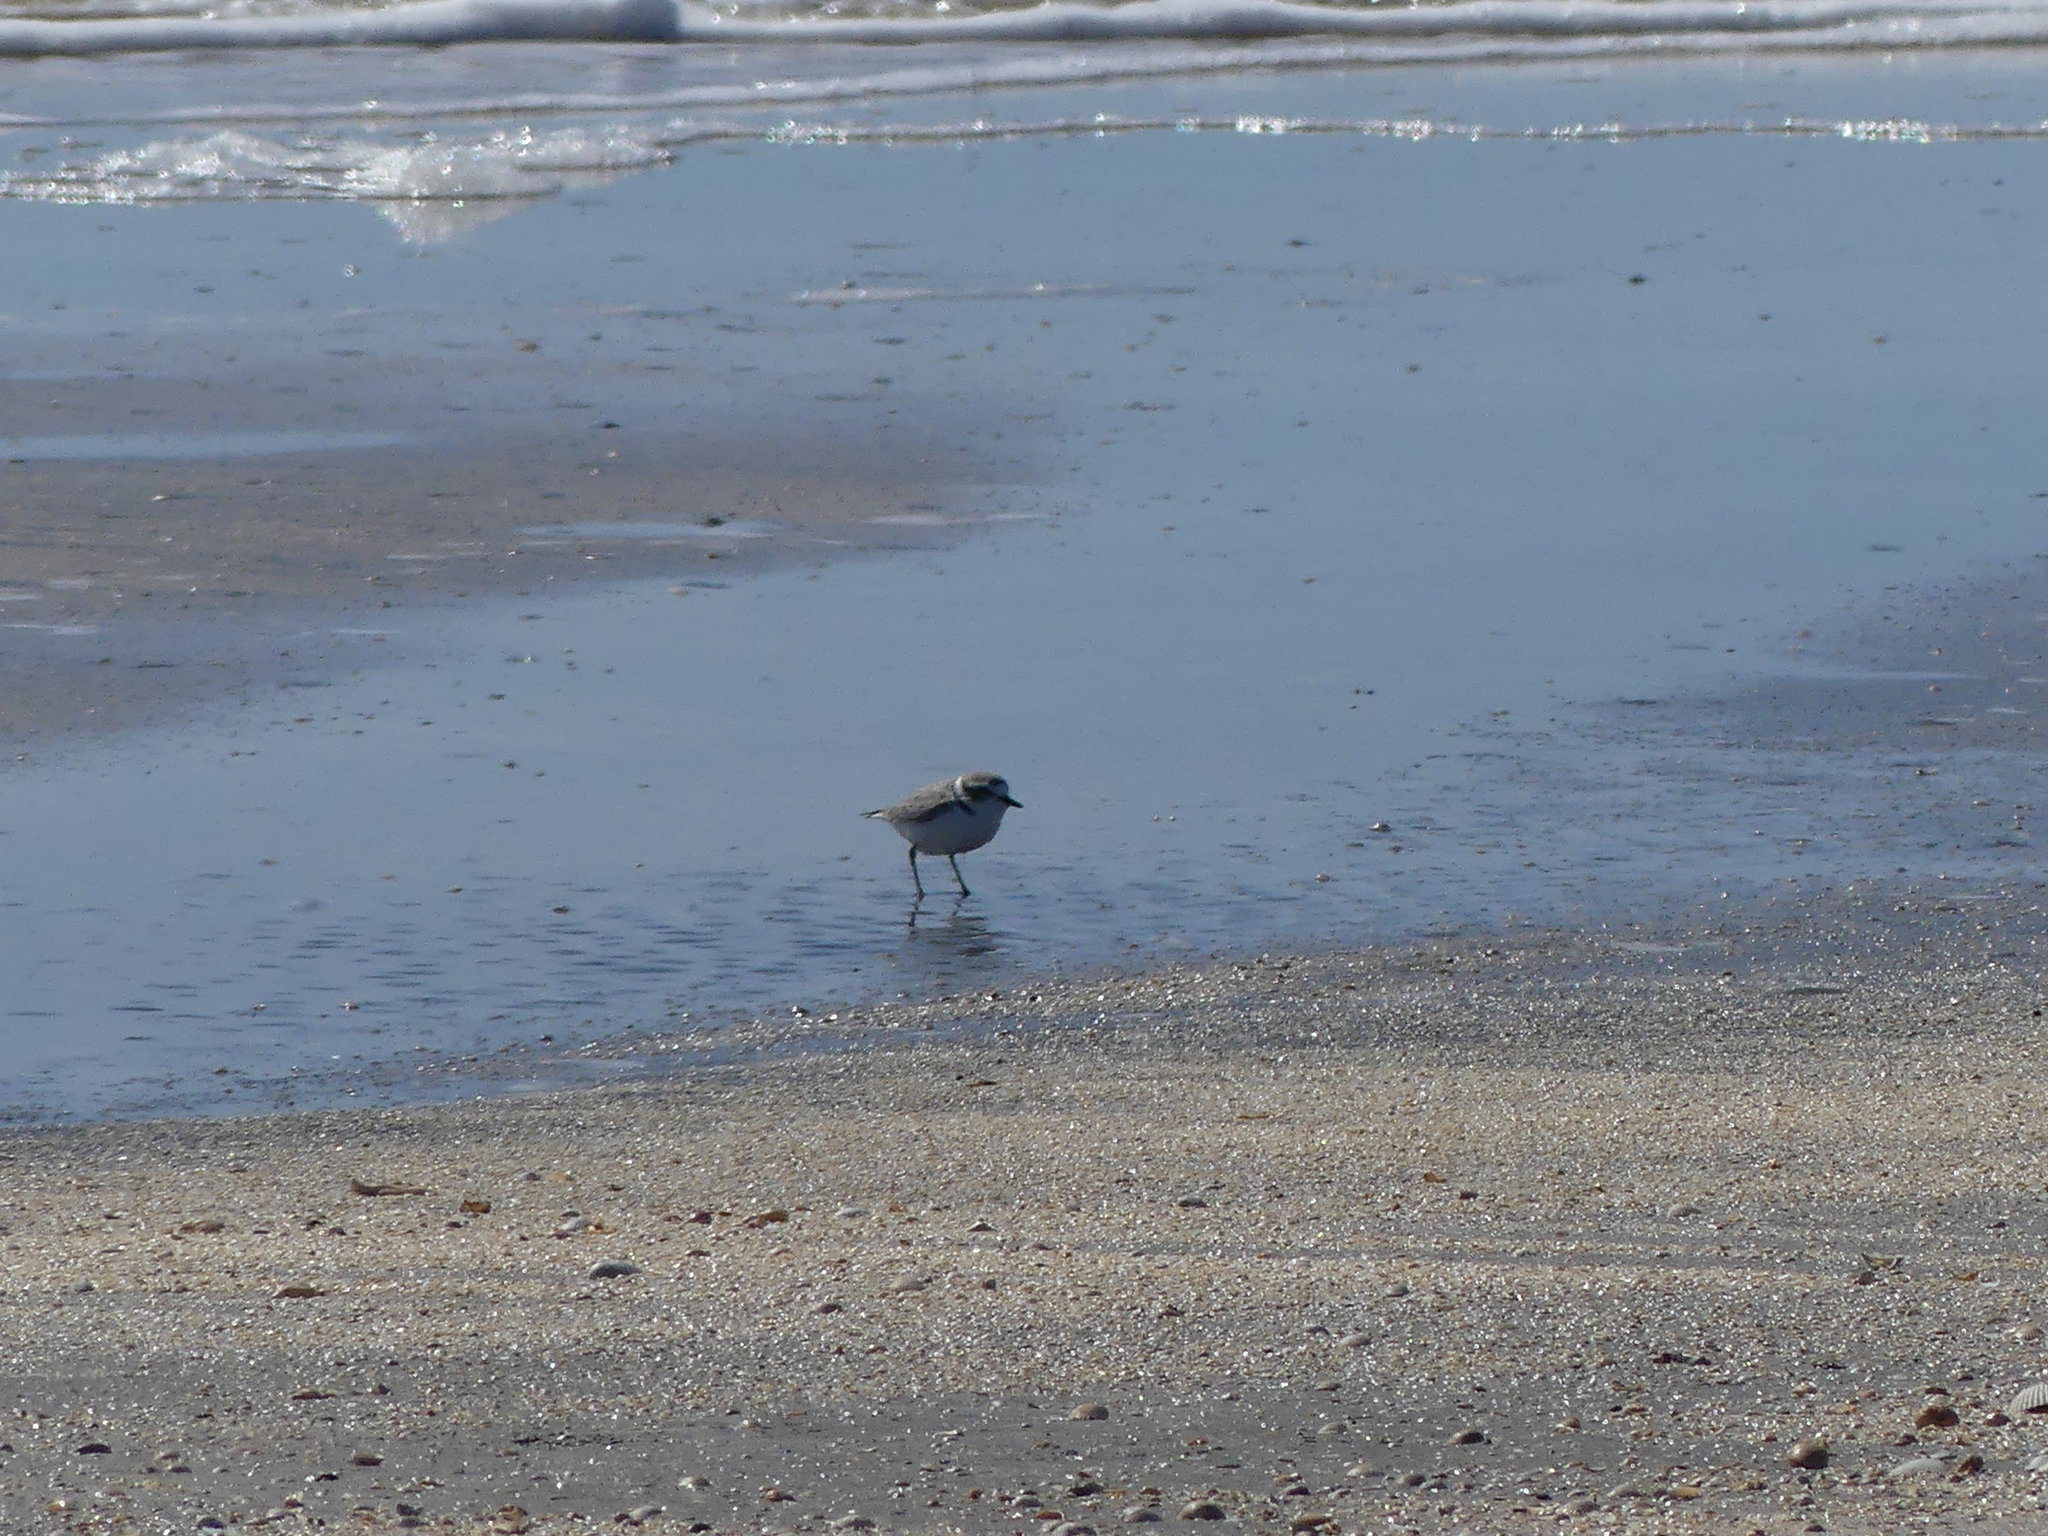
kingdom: Animalia
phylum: Chordata
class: Aves
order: Charadriiformes
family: Charadriidae
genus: Anarhynchus
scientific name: Anarhynchus
